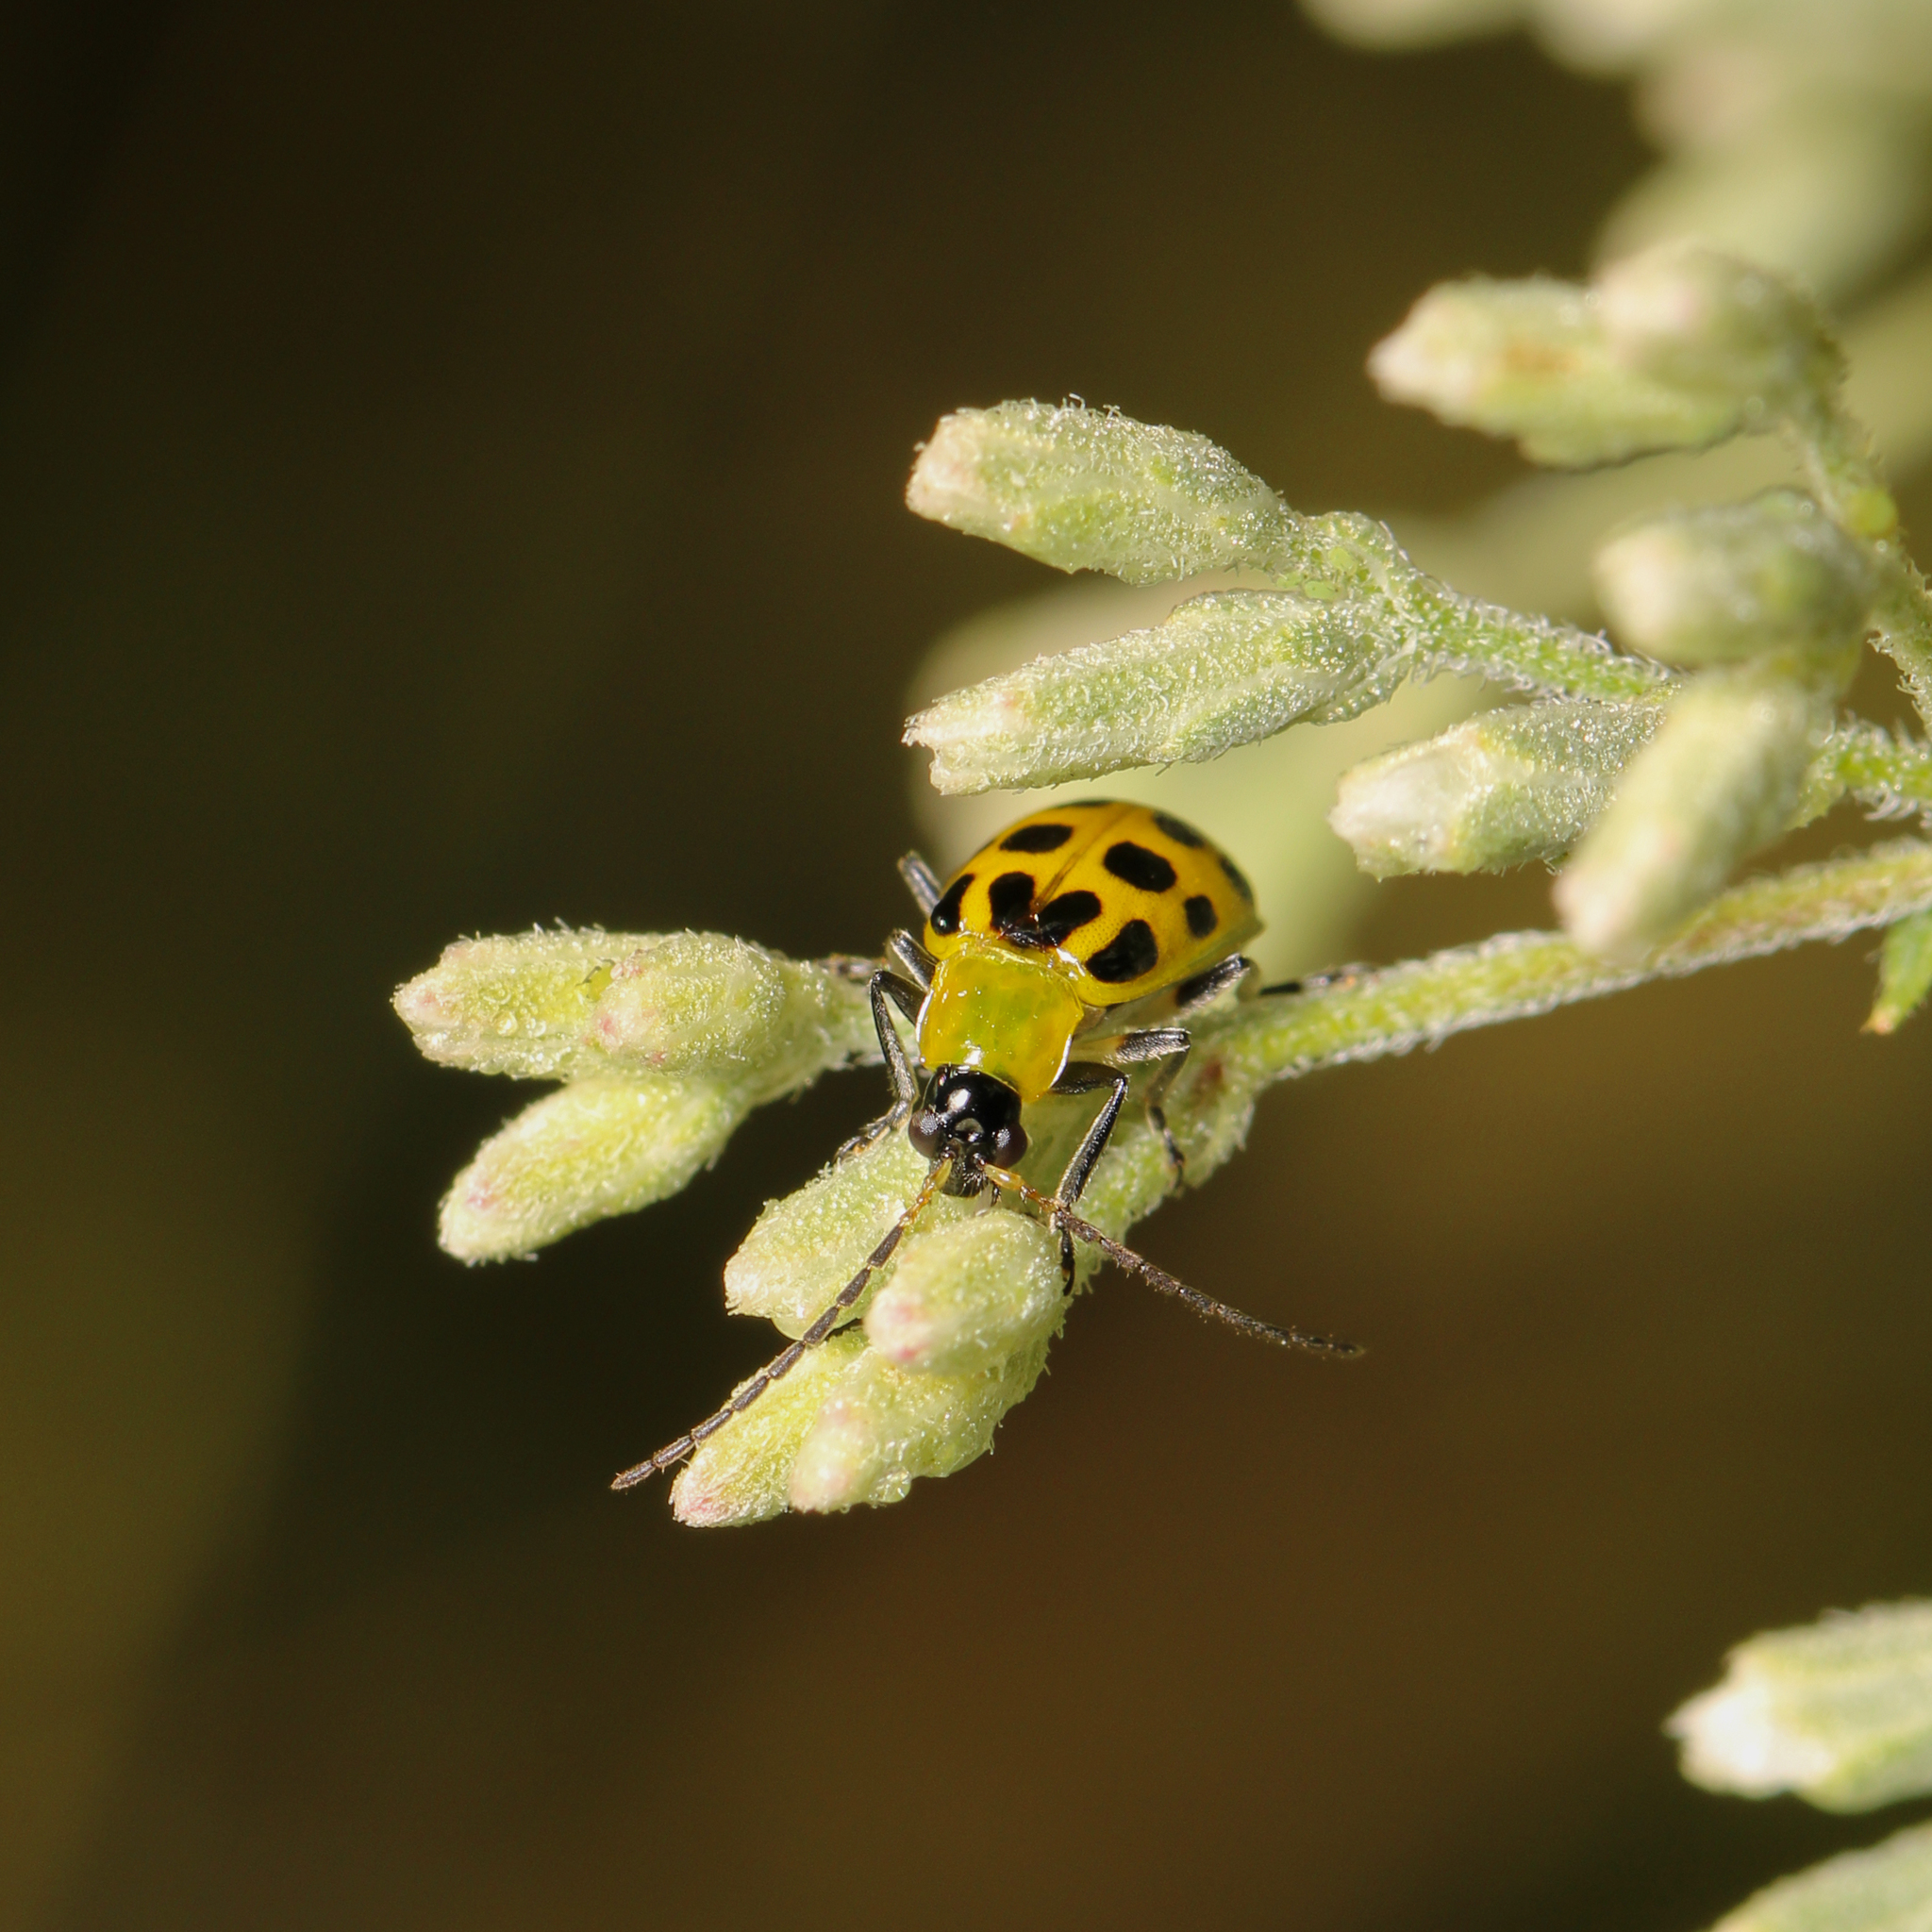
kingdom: Animalia
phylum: Arthropoda
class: Insecta
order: Coleoptera
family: Chrysomelidae
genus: Diabrotica
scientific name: Diabrotica undecimpunctata
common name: Spotted cucumber beetle
